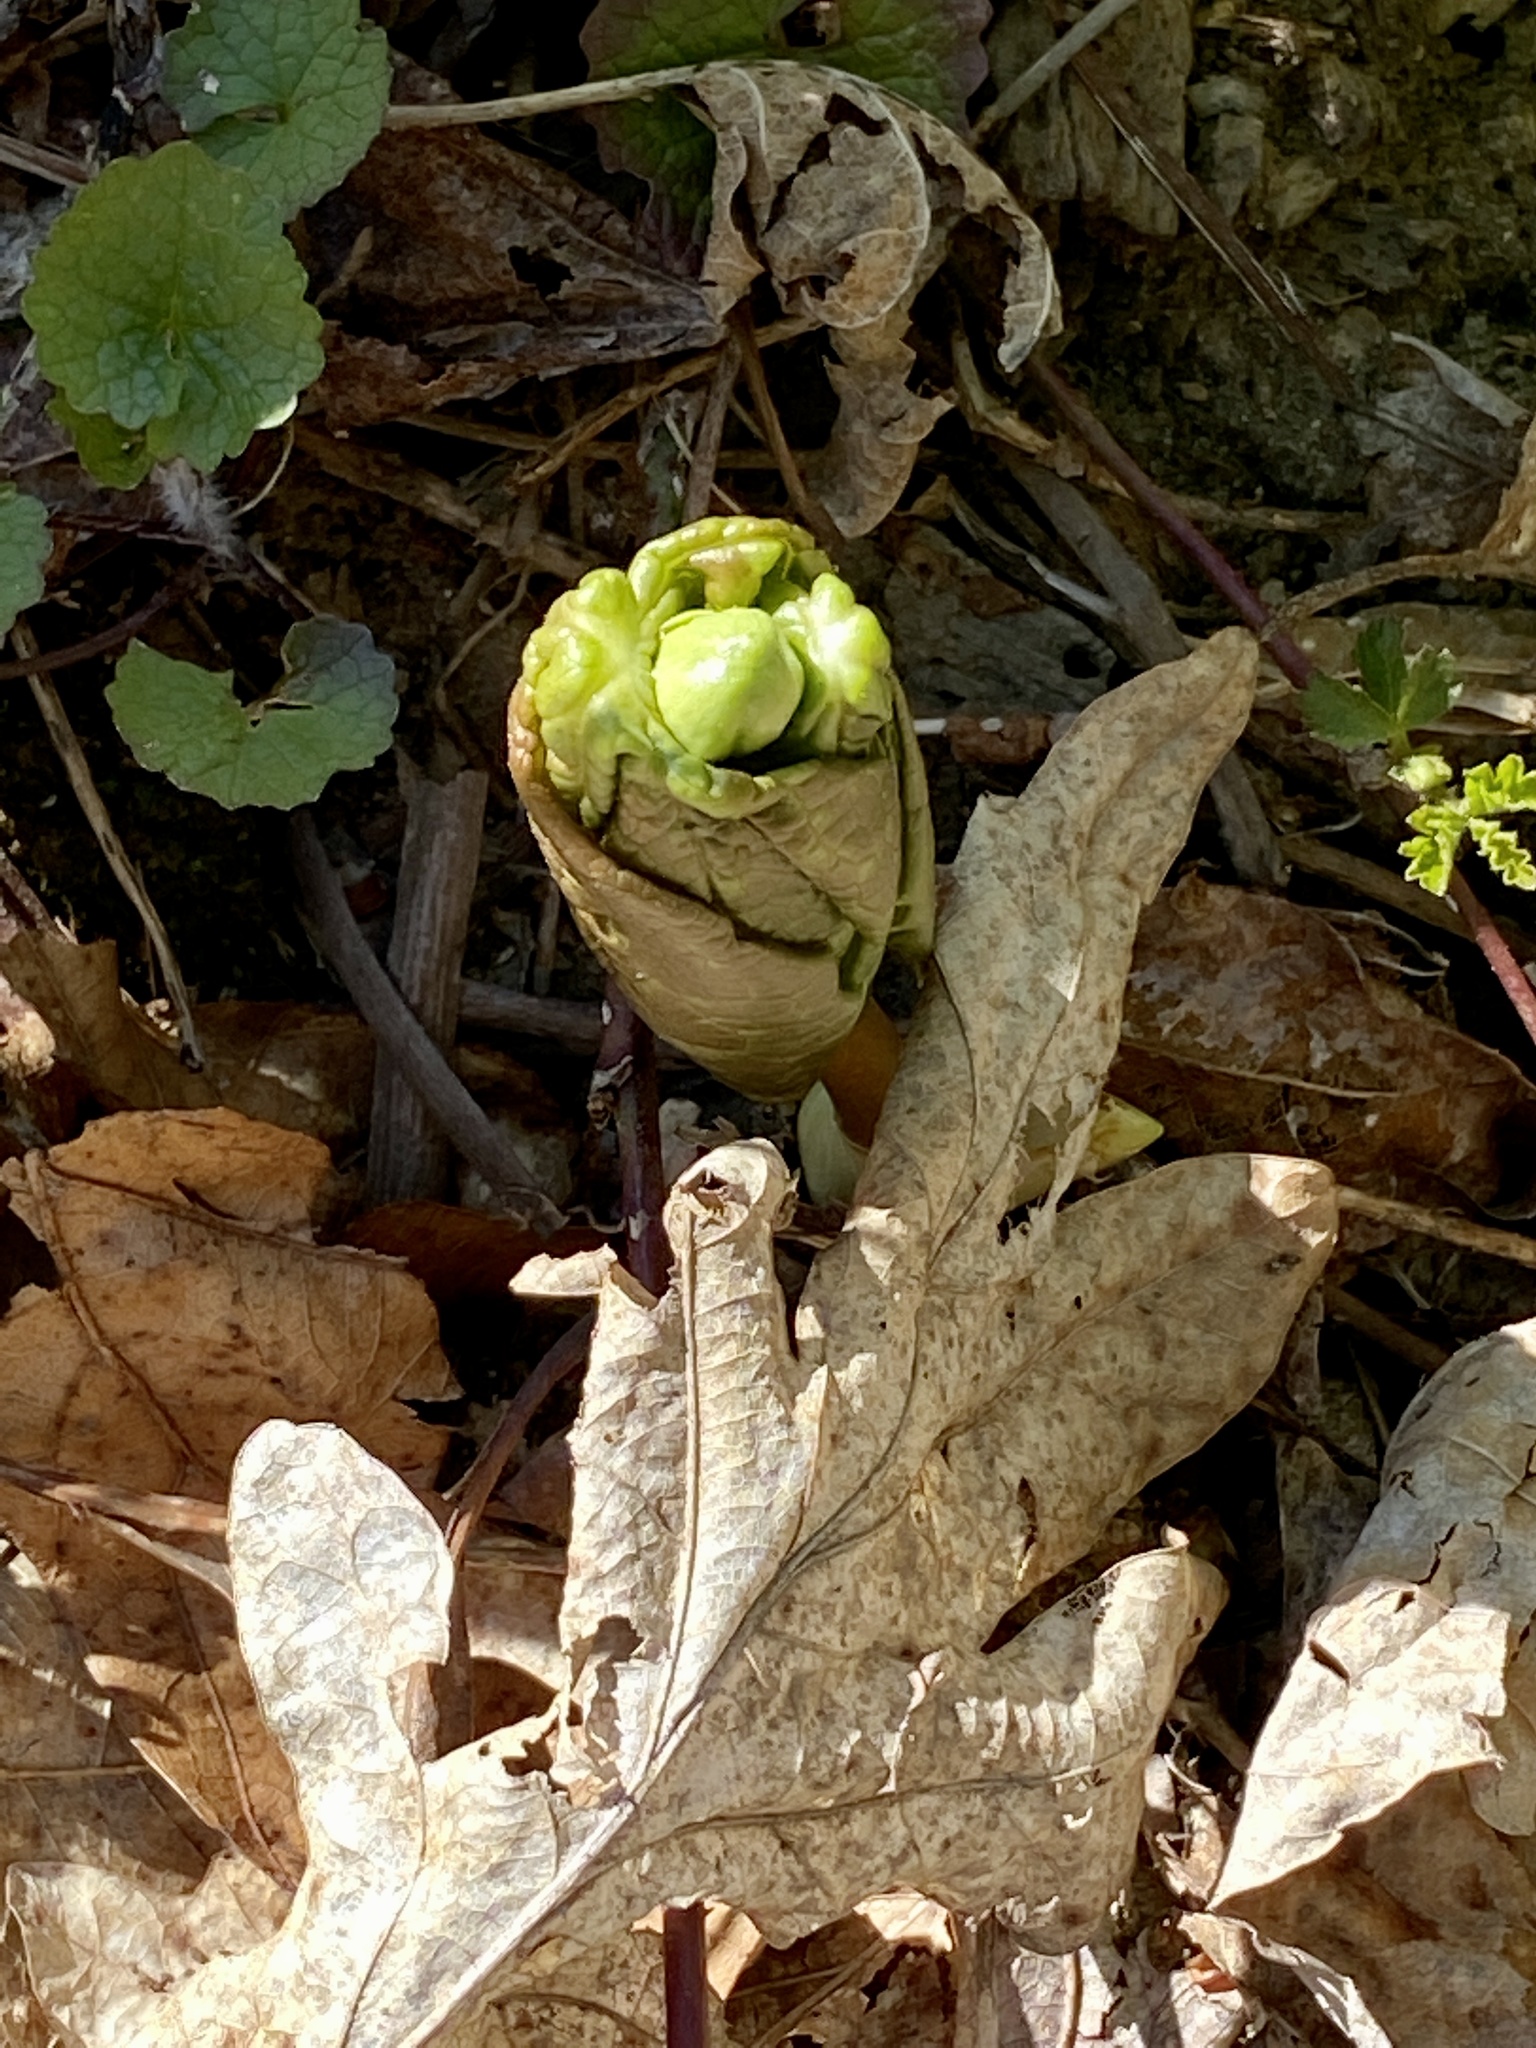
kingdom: Plantae
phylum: Tracheophyta
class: Magnoliopsida
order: Ranunculales
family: Berberidaceae
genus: Podophyllum
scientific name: Podophyllum peltatum
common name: Wild mandrake
